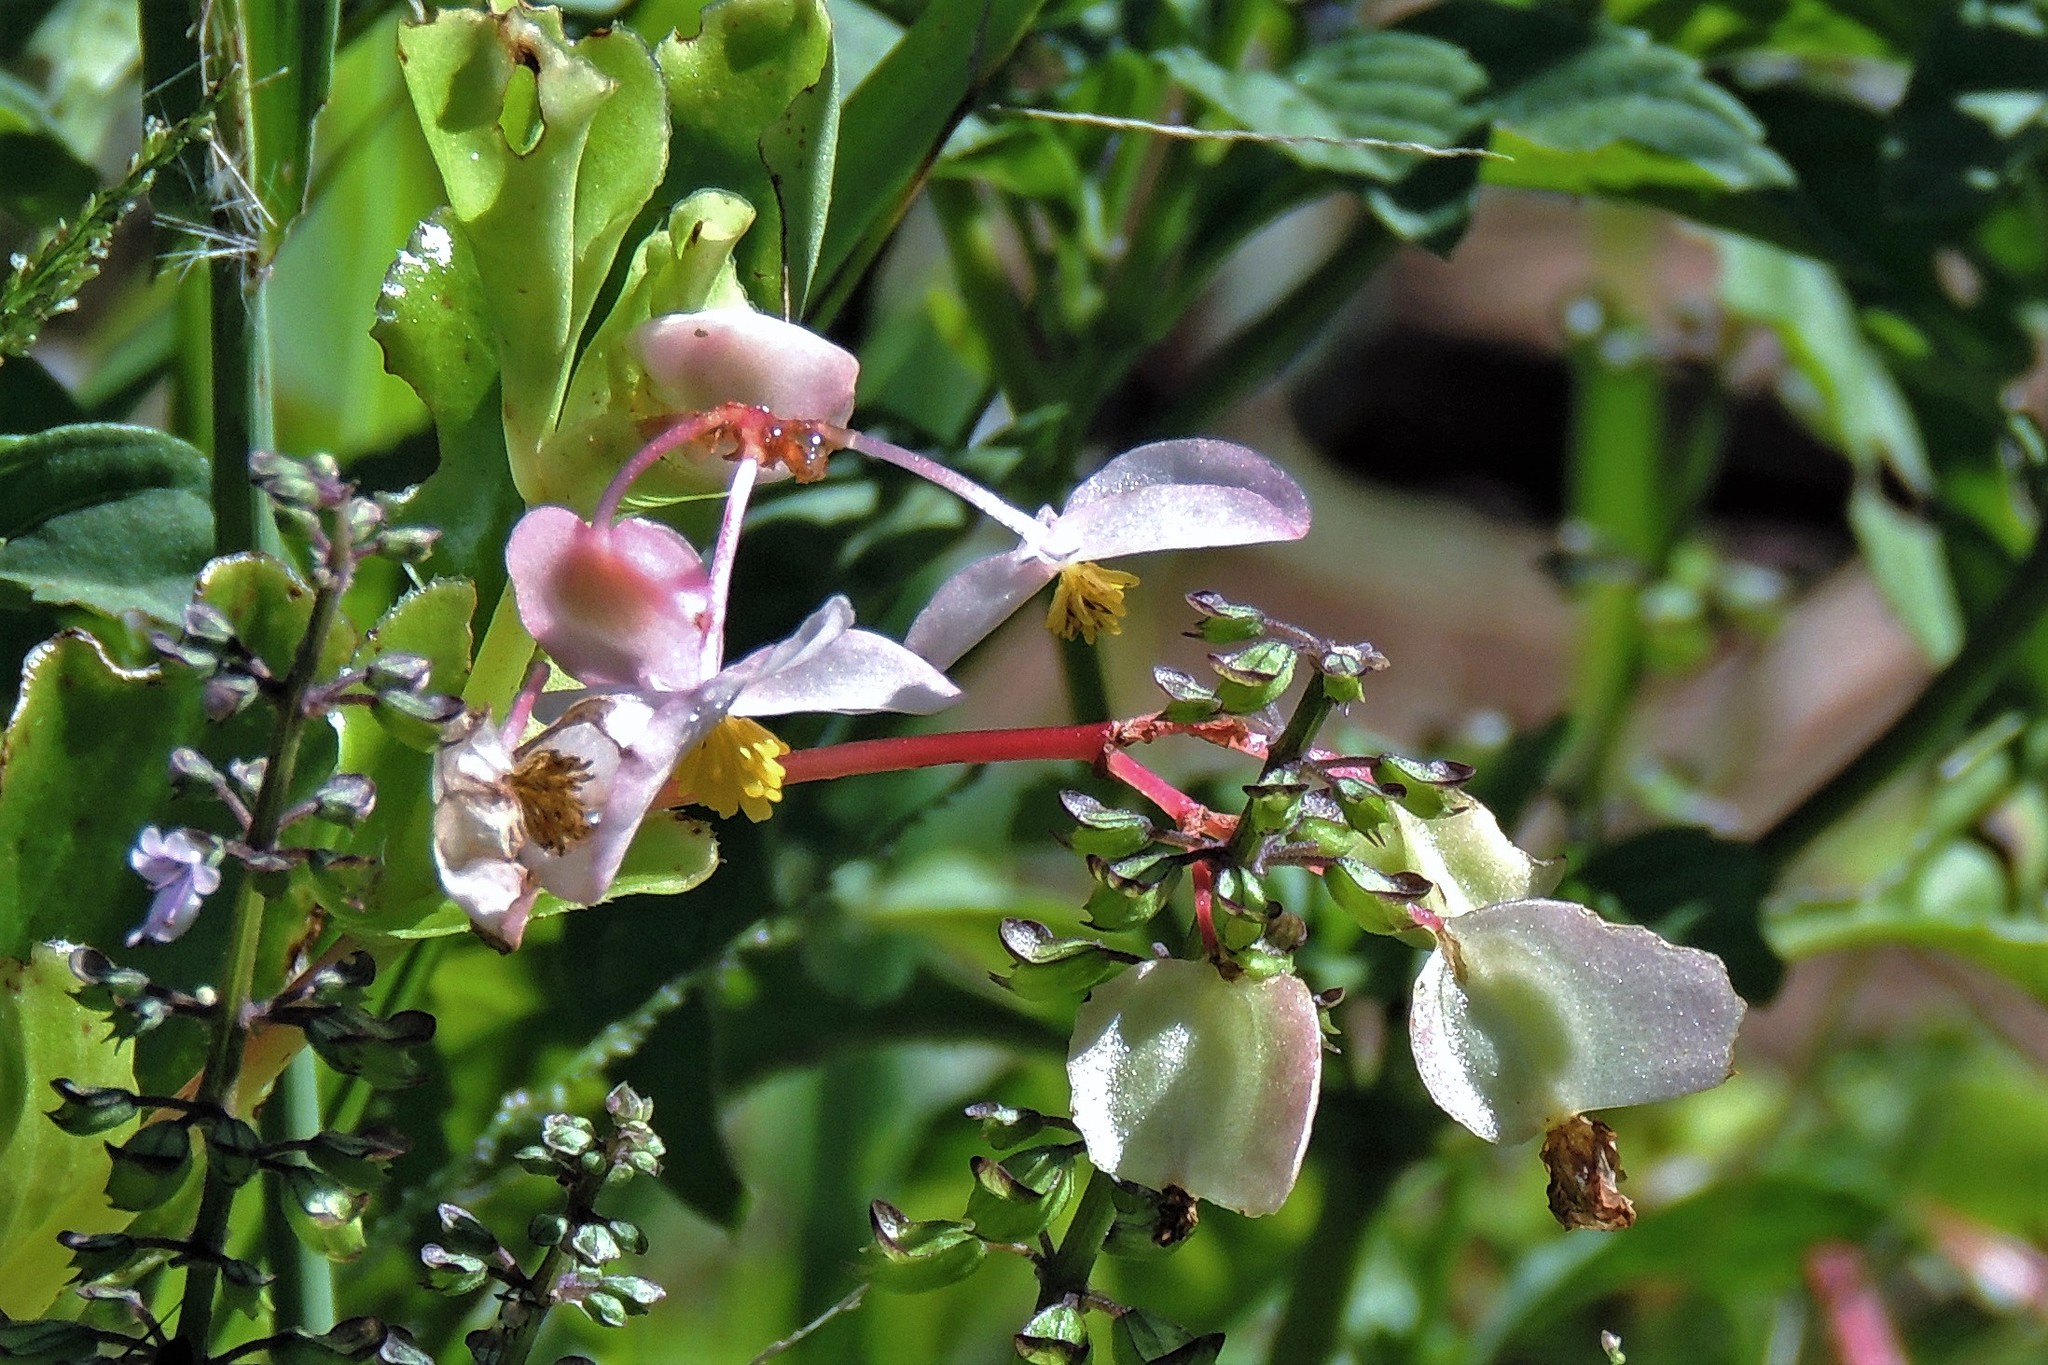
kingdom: Plantae
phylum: Tracheophyta
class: Magnoliopsida
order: Cucurbitales
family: Begoniaceae
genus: Begonia
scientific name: Begonia cucullata
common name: Clubbed begonia
